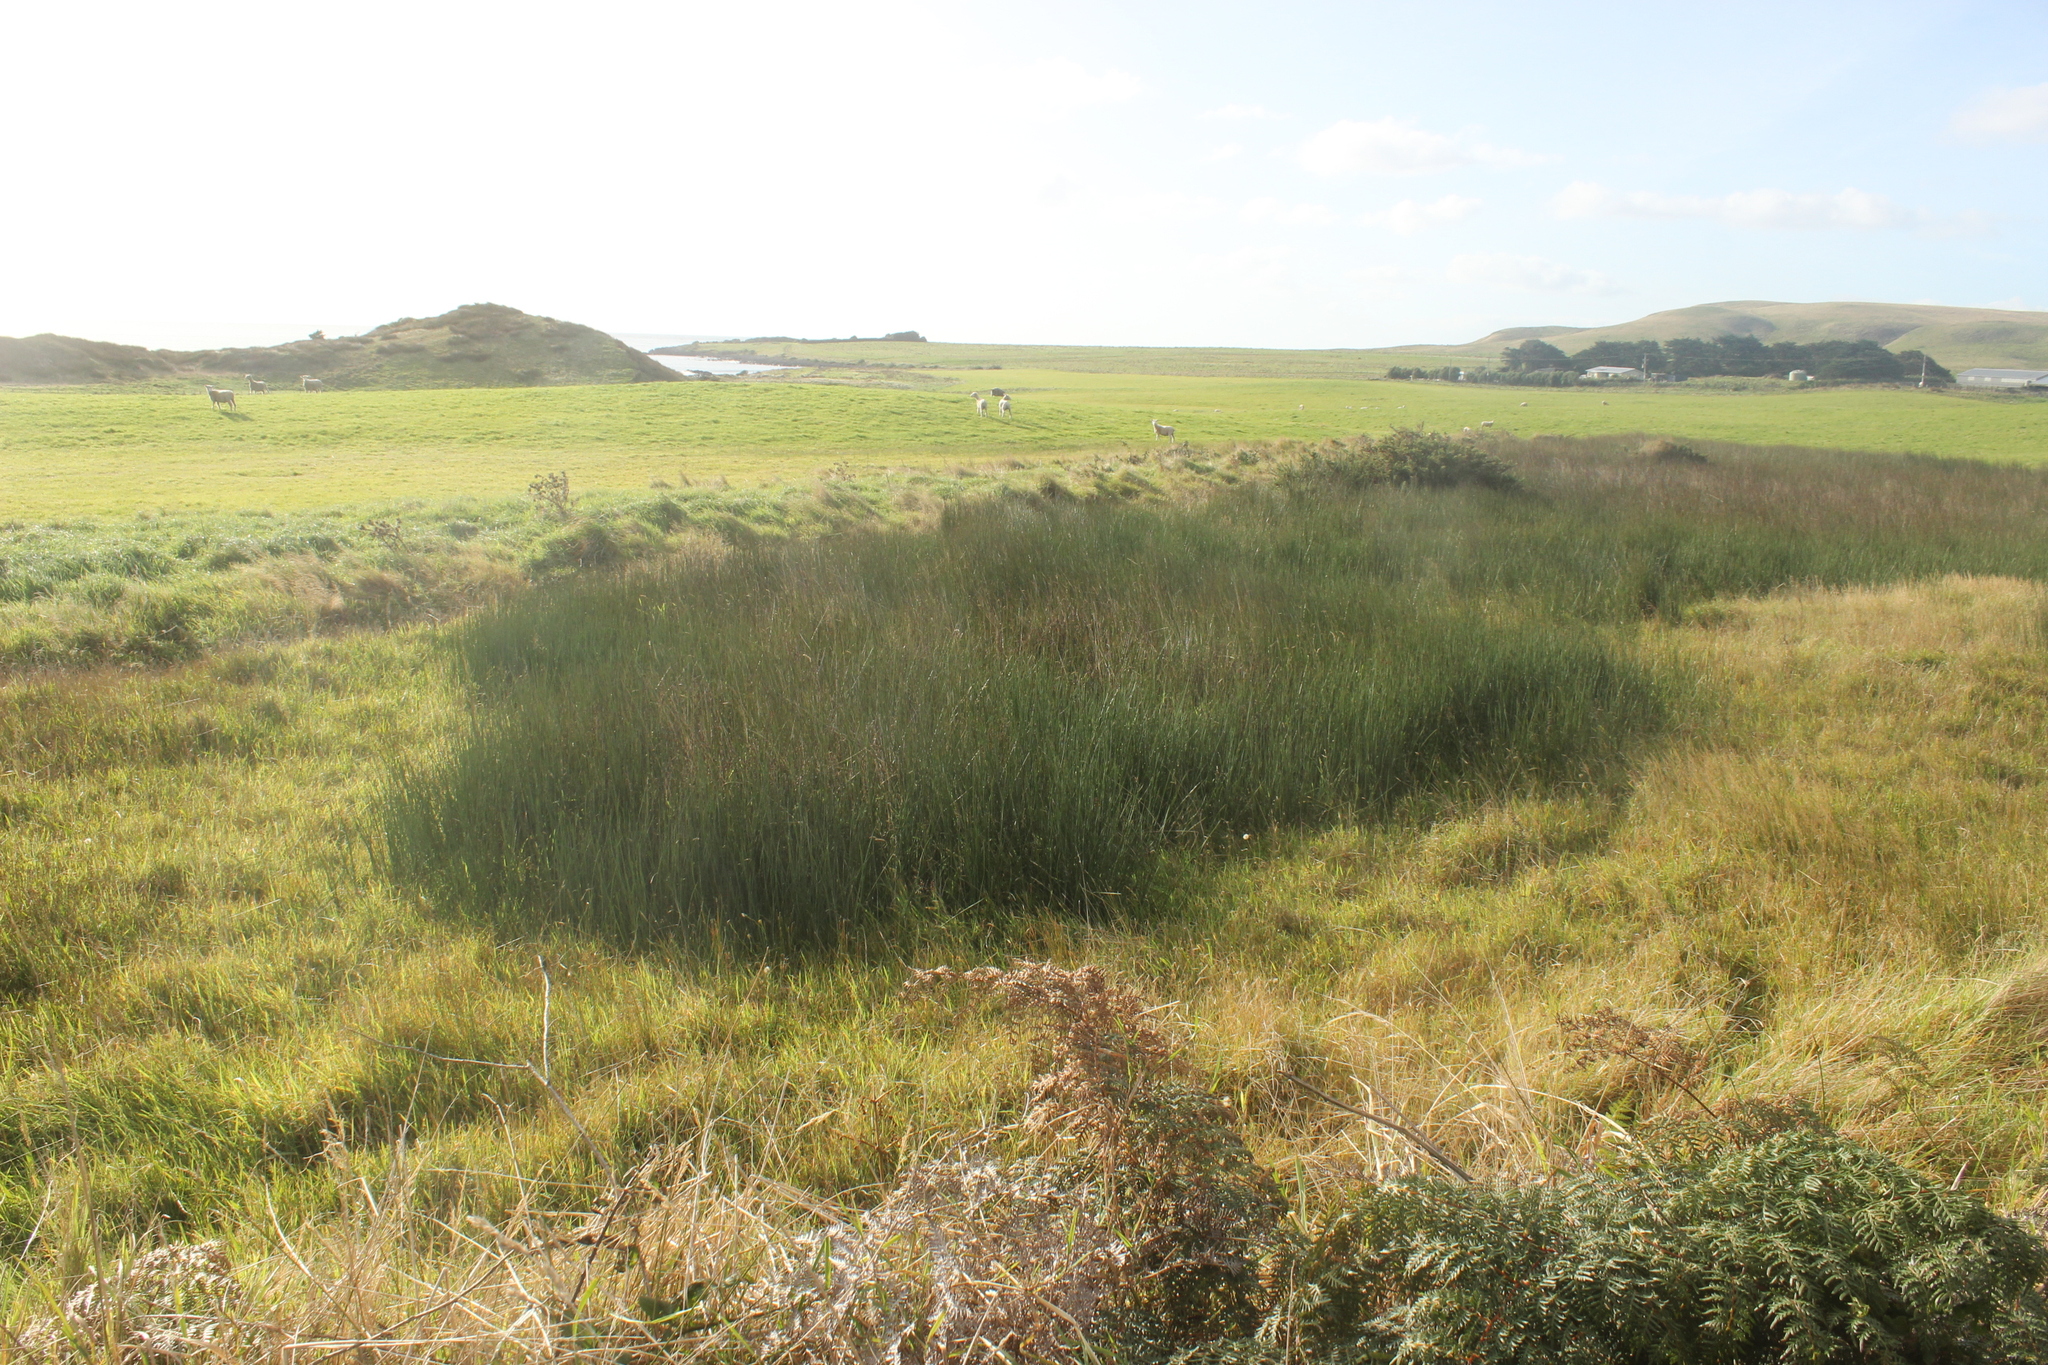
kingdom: Plantae
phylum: Tracheophyta
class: Liliopsida
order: Poales
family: Restionaceae
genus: Sporadanthus
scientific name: Sporadanthus traversii
